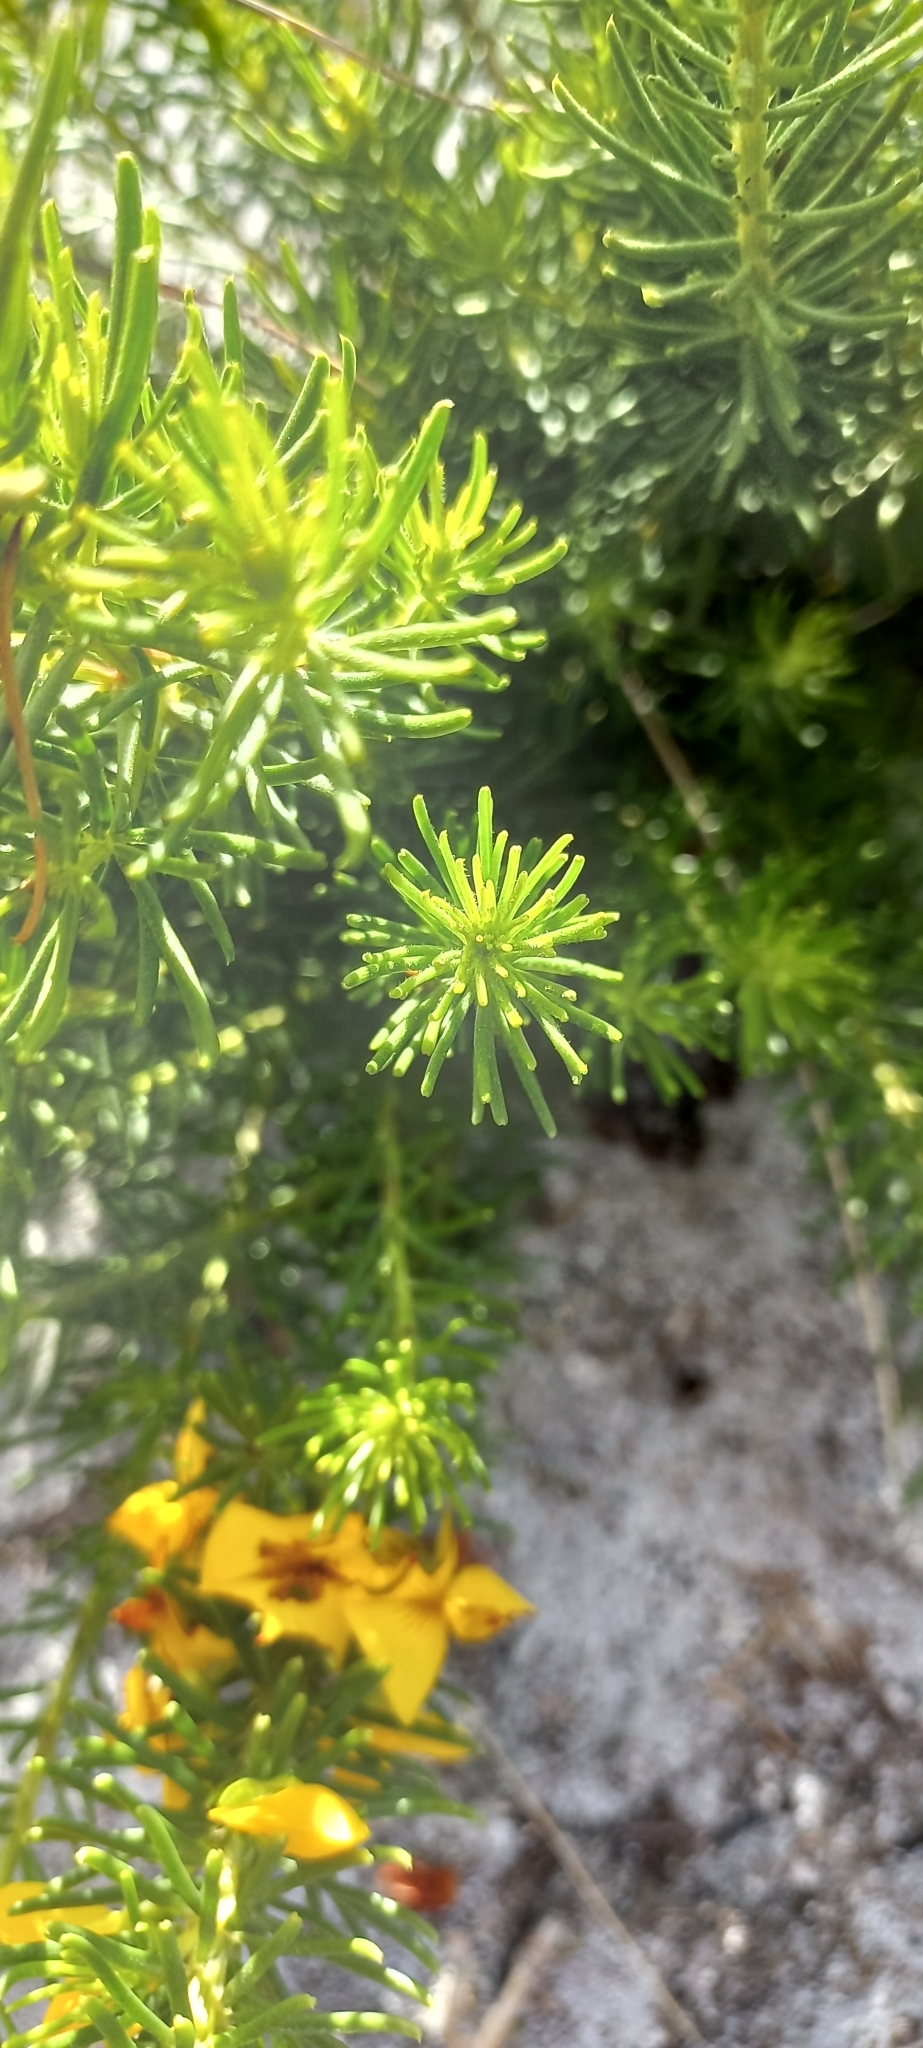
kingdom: Plantae
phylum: Tracheophyta
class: Magnoliopsida
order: Fabales
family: Fabaceae
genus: Cyclopia
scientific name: Cyclopia genistoides
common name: Honeybush tea
